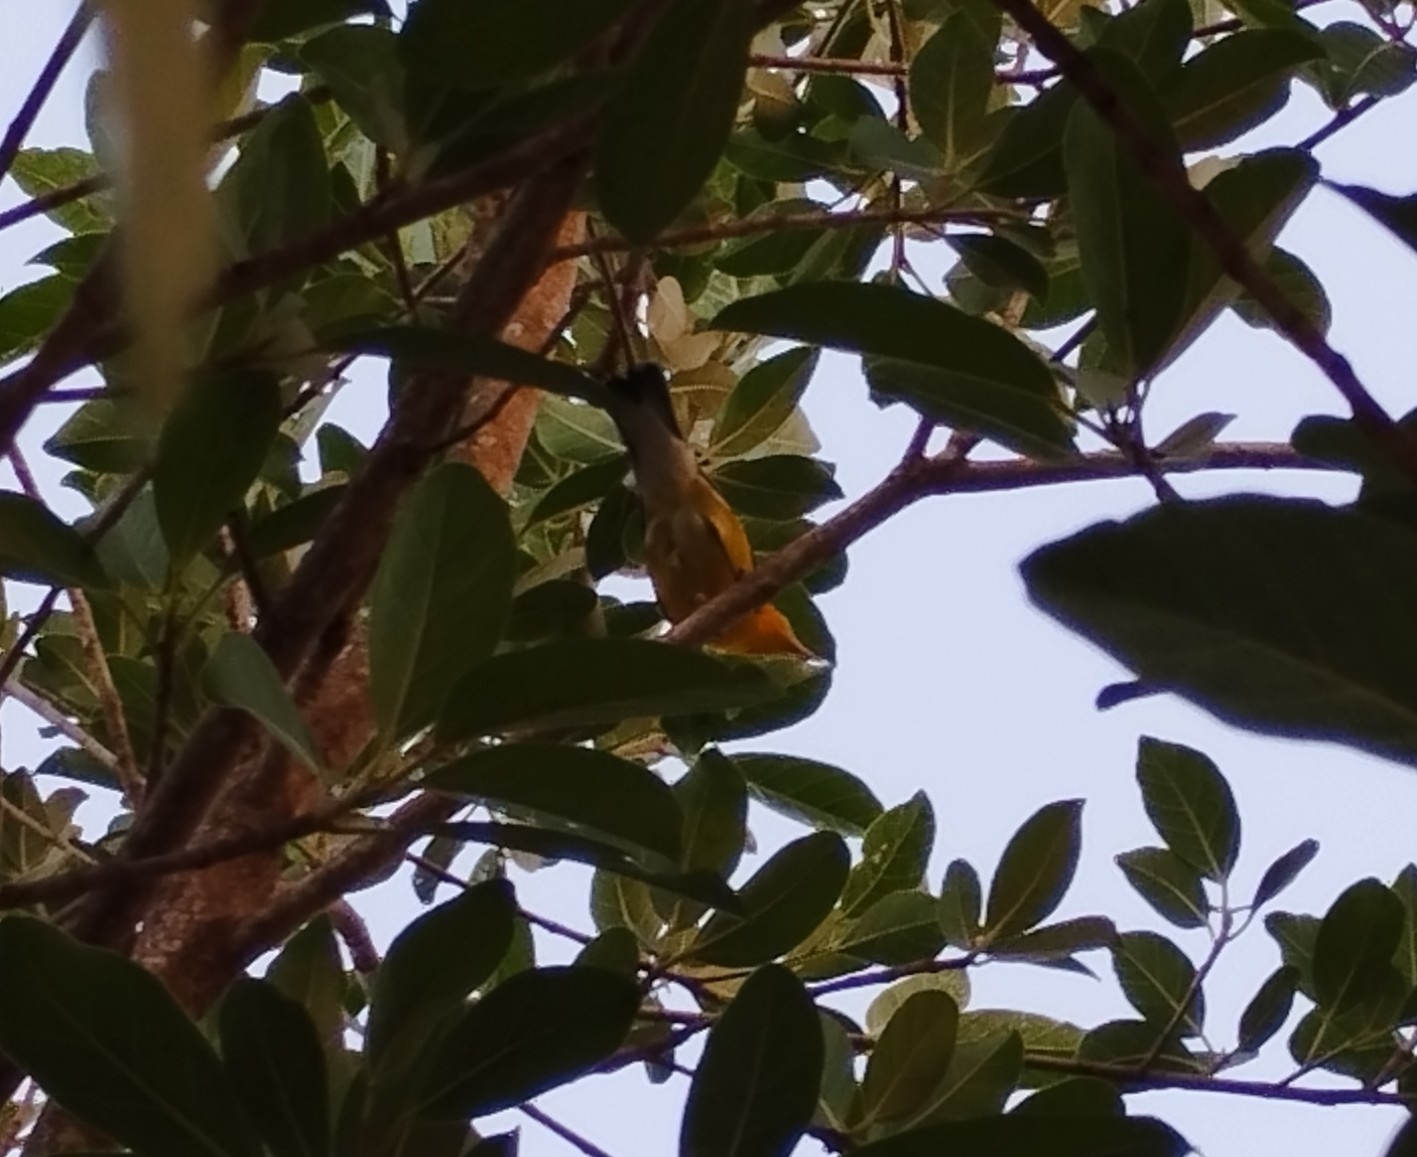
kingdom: Animalia
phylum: Chordata
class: Aves
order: Passeriformes
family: Parulidae
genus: Protonotaria
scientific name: Protonotaria citrea
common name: Prothonotary warbler
